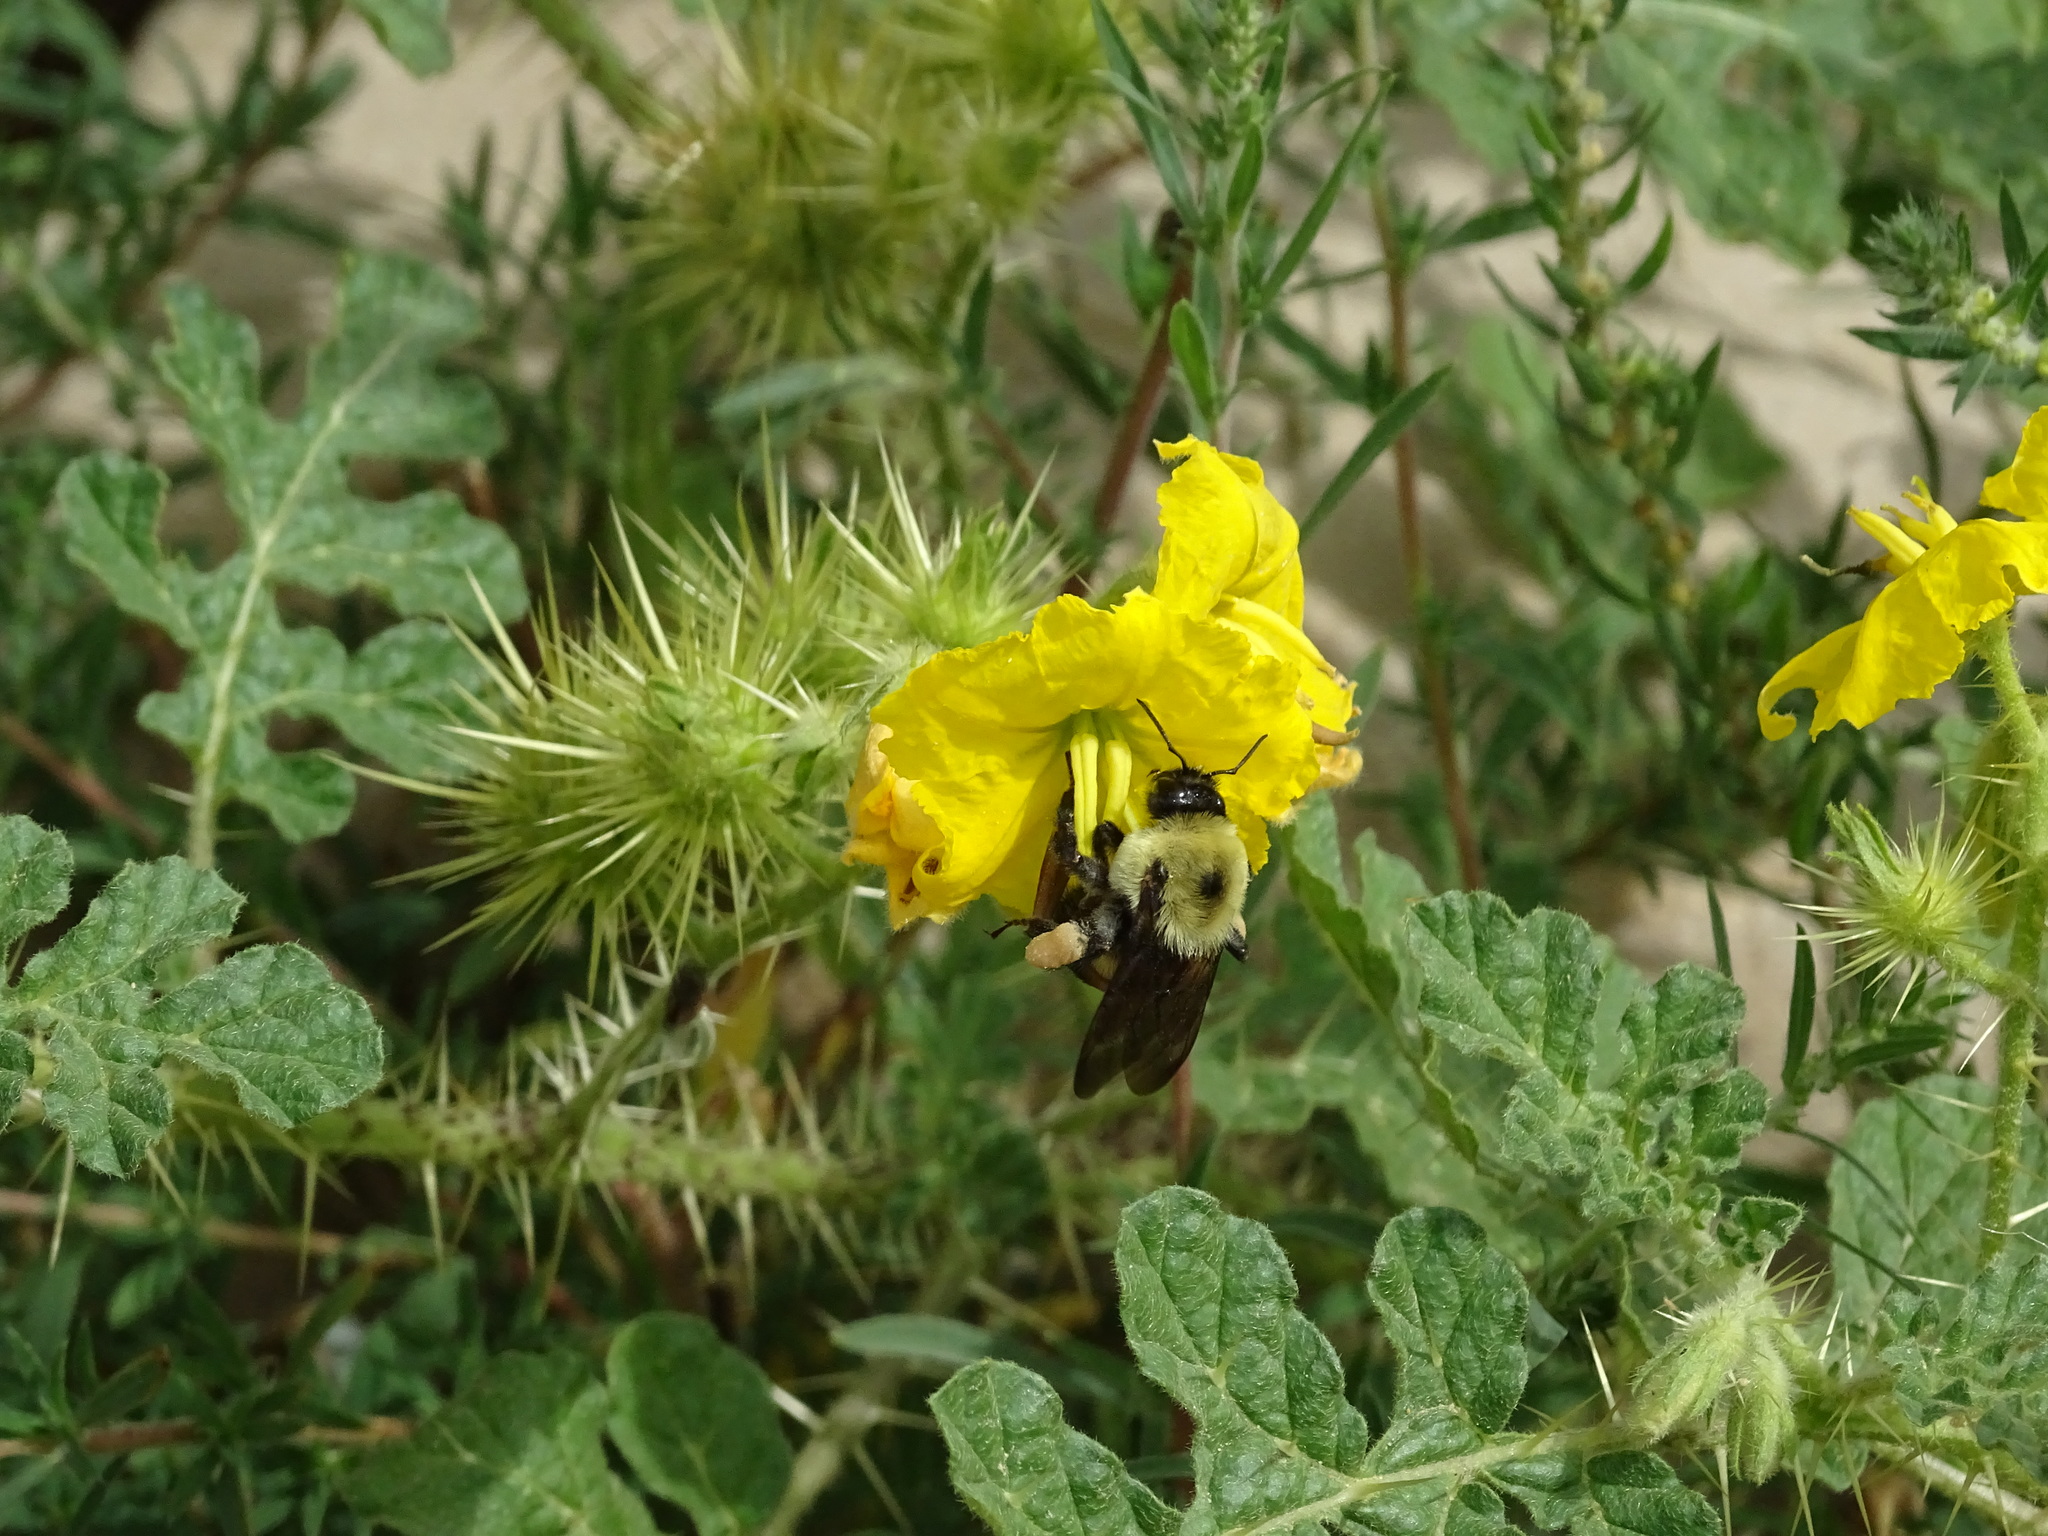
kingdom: Animalia
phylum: Arthropoda
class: Insecta
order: Hymenoptera
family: Apidae
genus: Bombus
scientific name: Bombus griseocollis
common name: Brown-belted bumble bee
